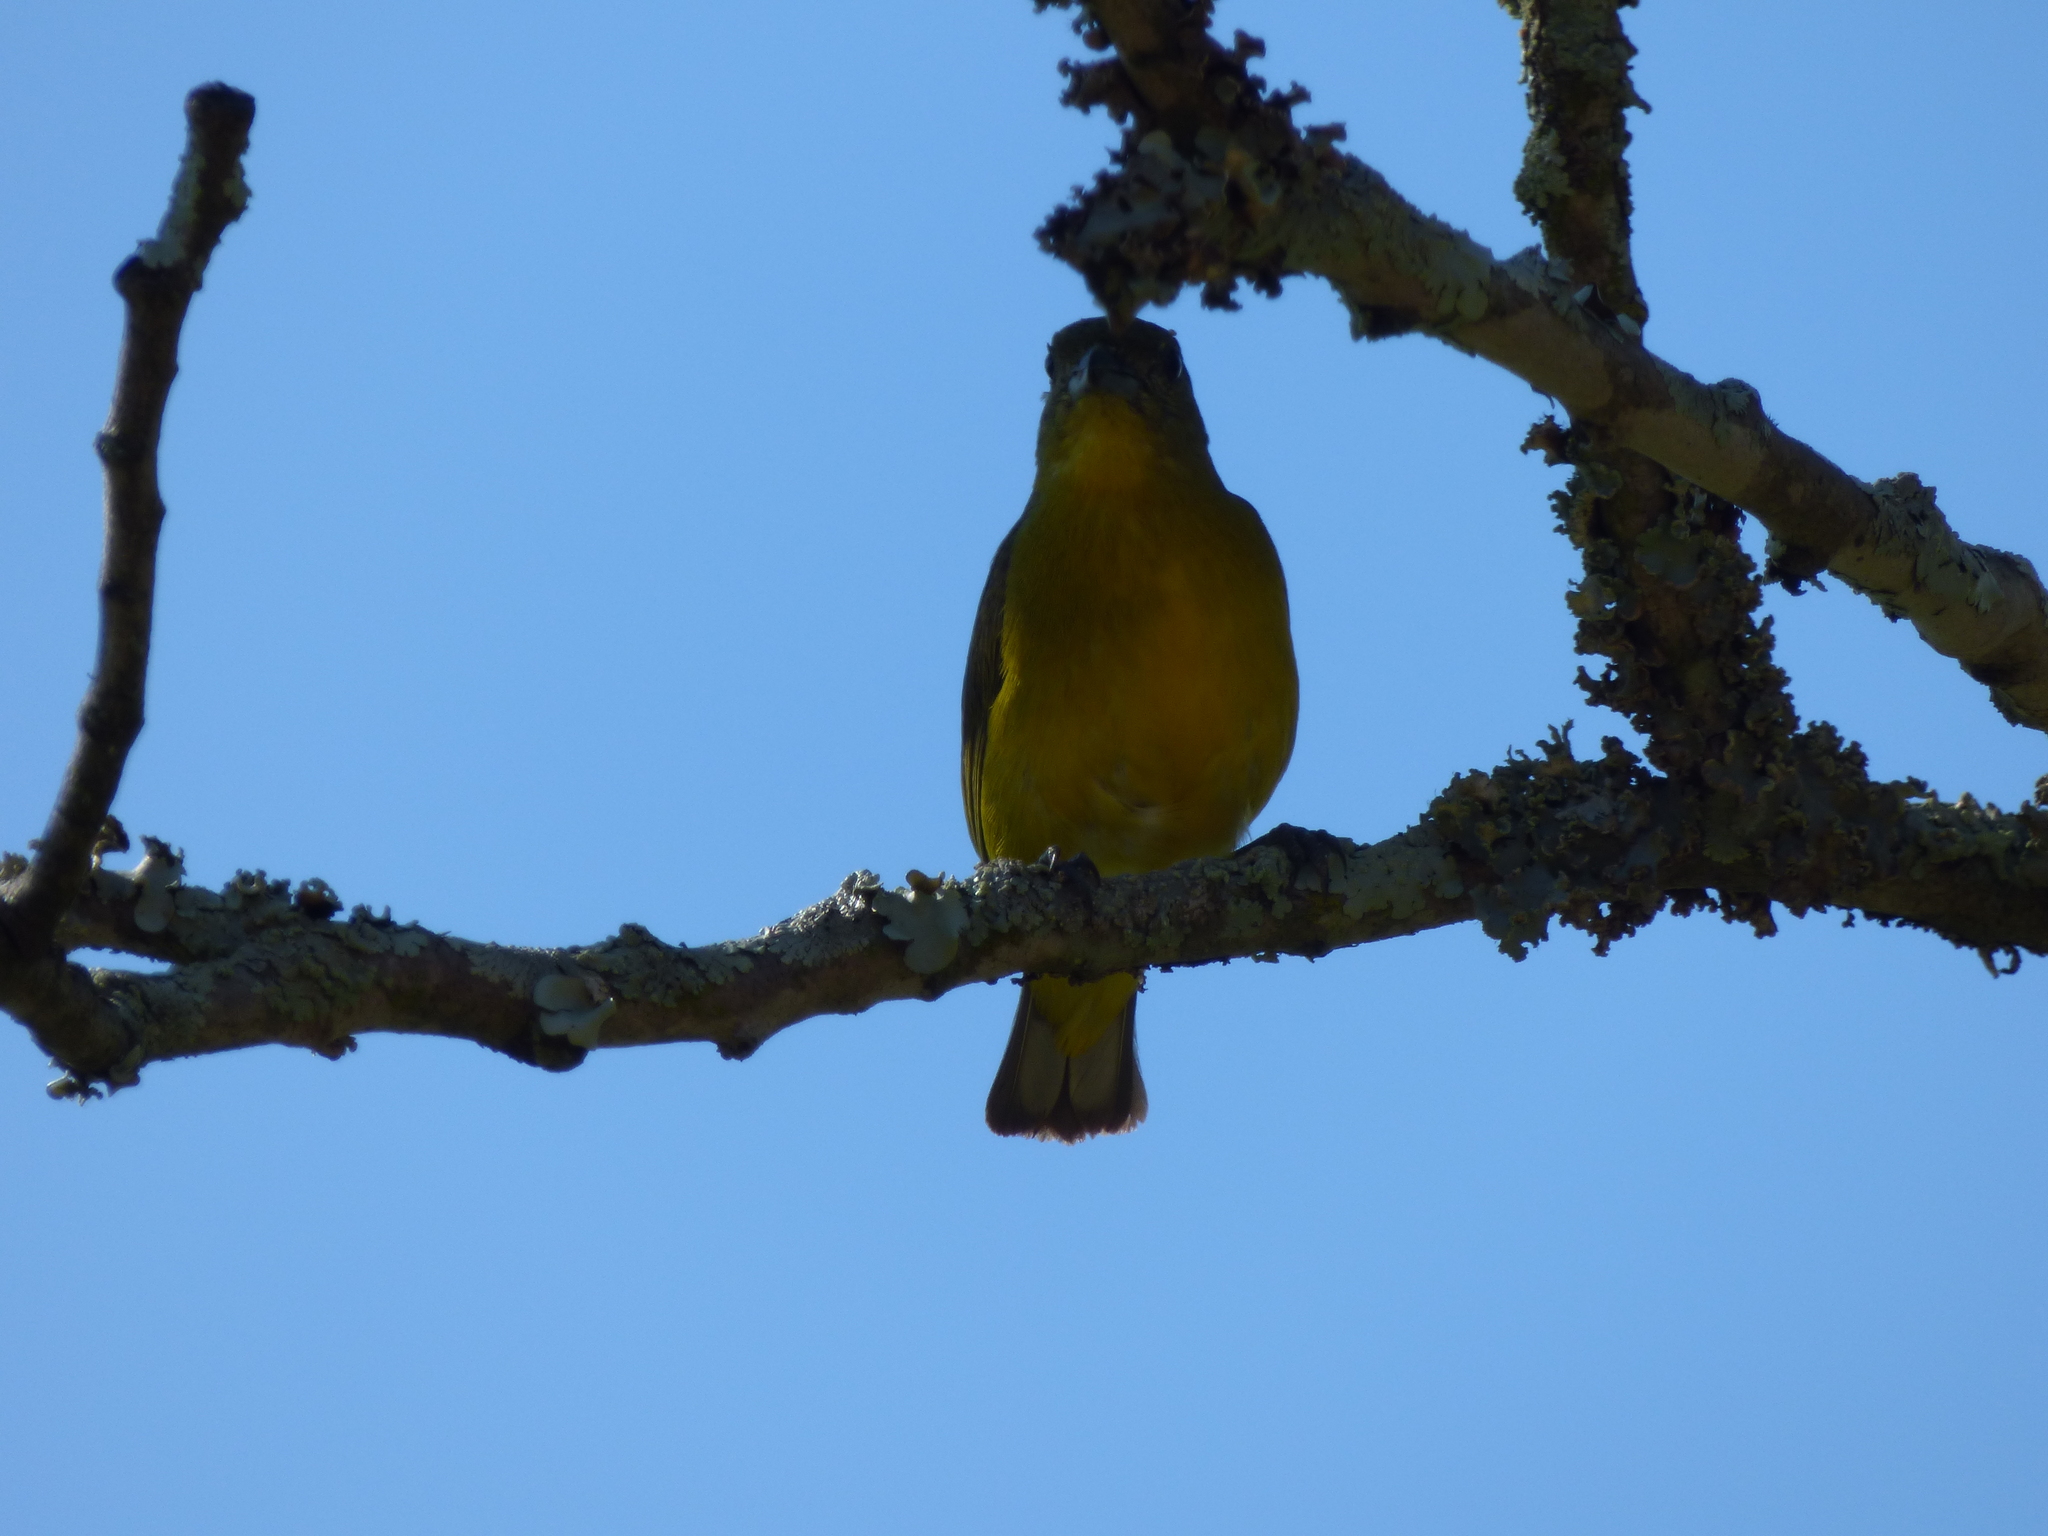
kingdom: Animalia
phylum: Chordata
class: Aves
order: Passeriformes
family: Fringillidae
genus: Euphonia
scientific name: Euphonia laniirostris
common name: Thick-billed euphonia
